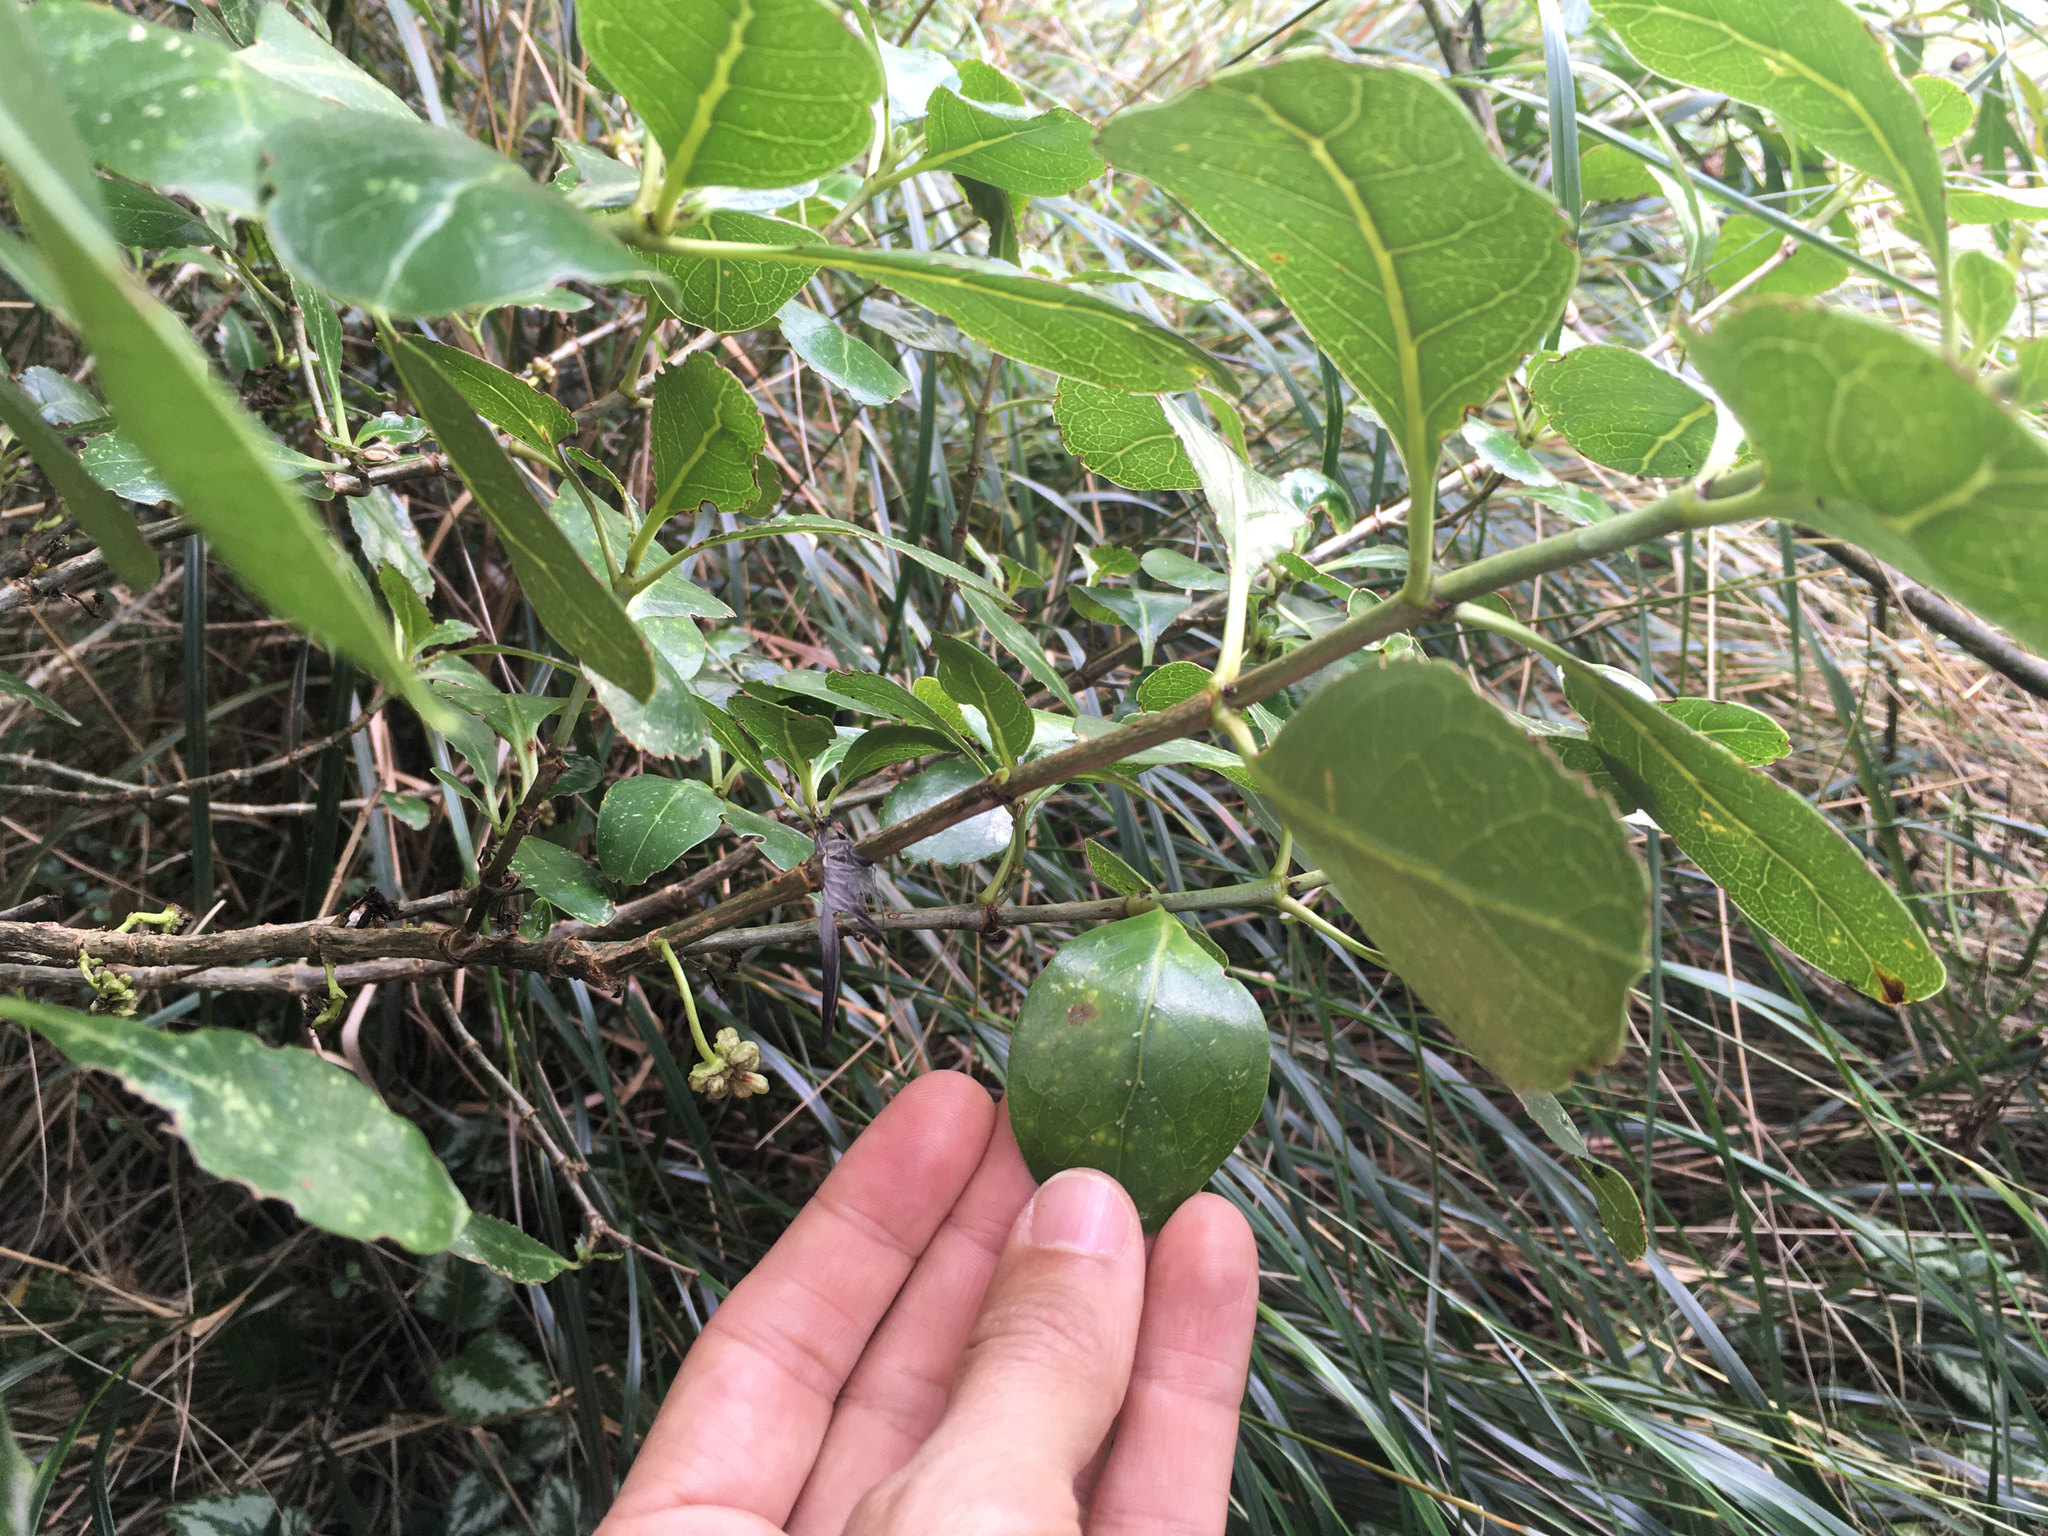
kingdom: Plantae
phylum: Tracheophyta
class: Magnoliopsida
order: Gentianales
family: Rubiaceae
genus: Coprosma
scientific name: Coprosma repens
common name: Tree bedstraw
